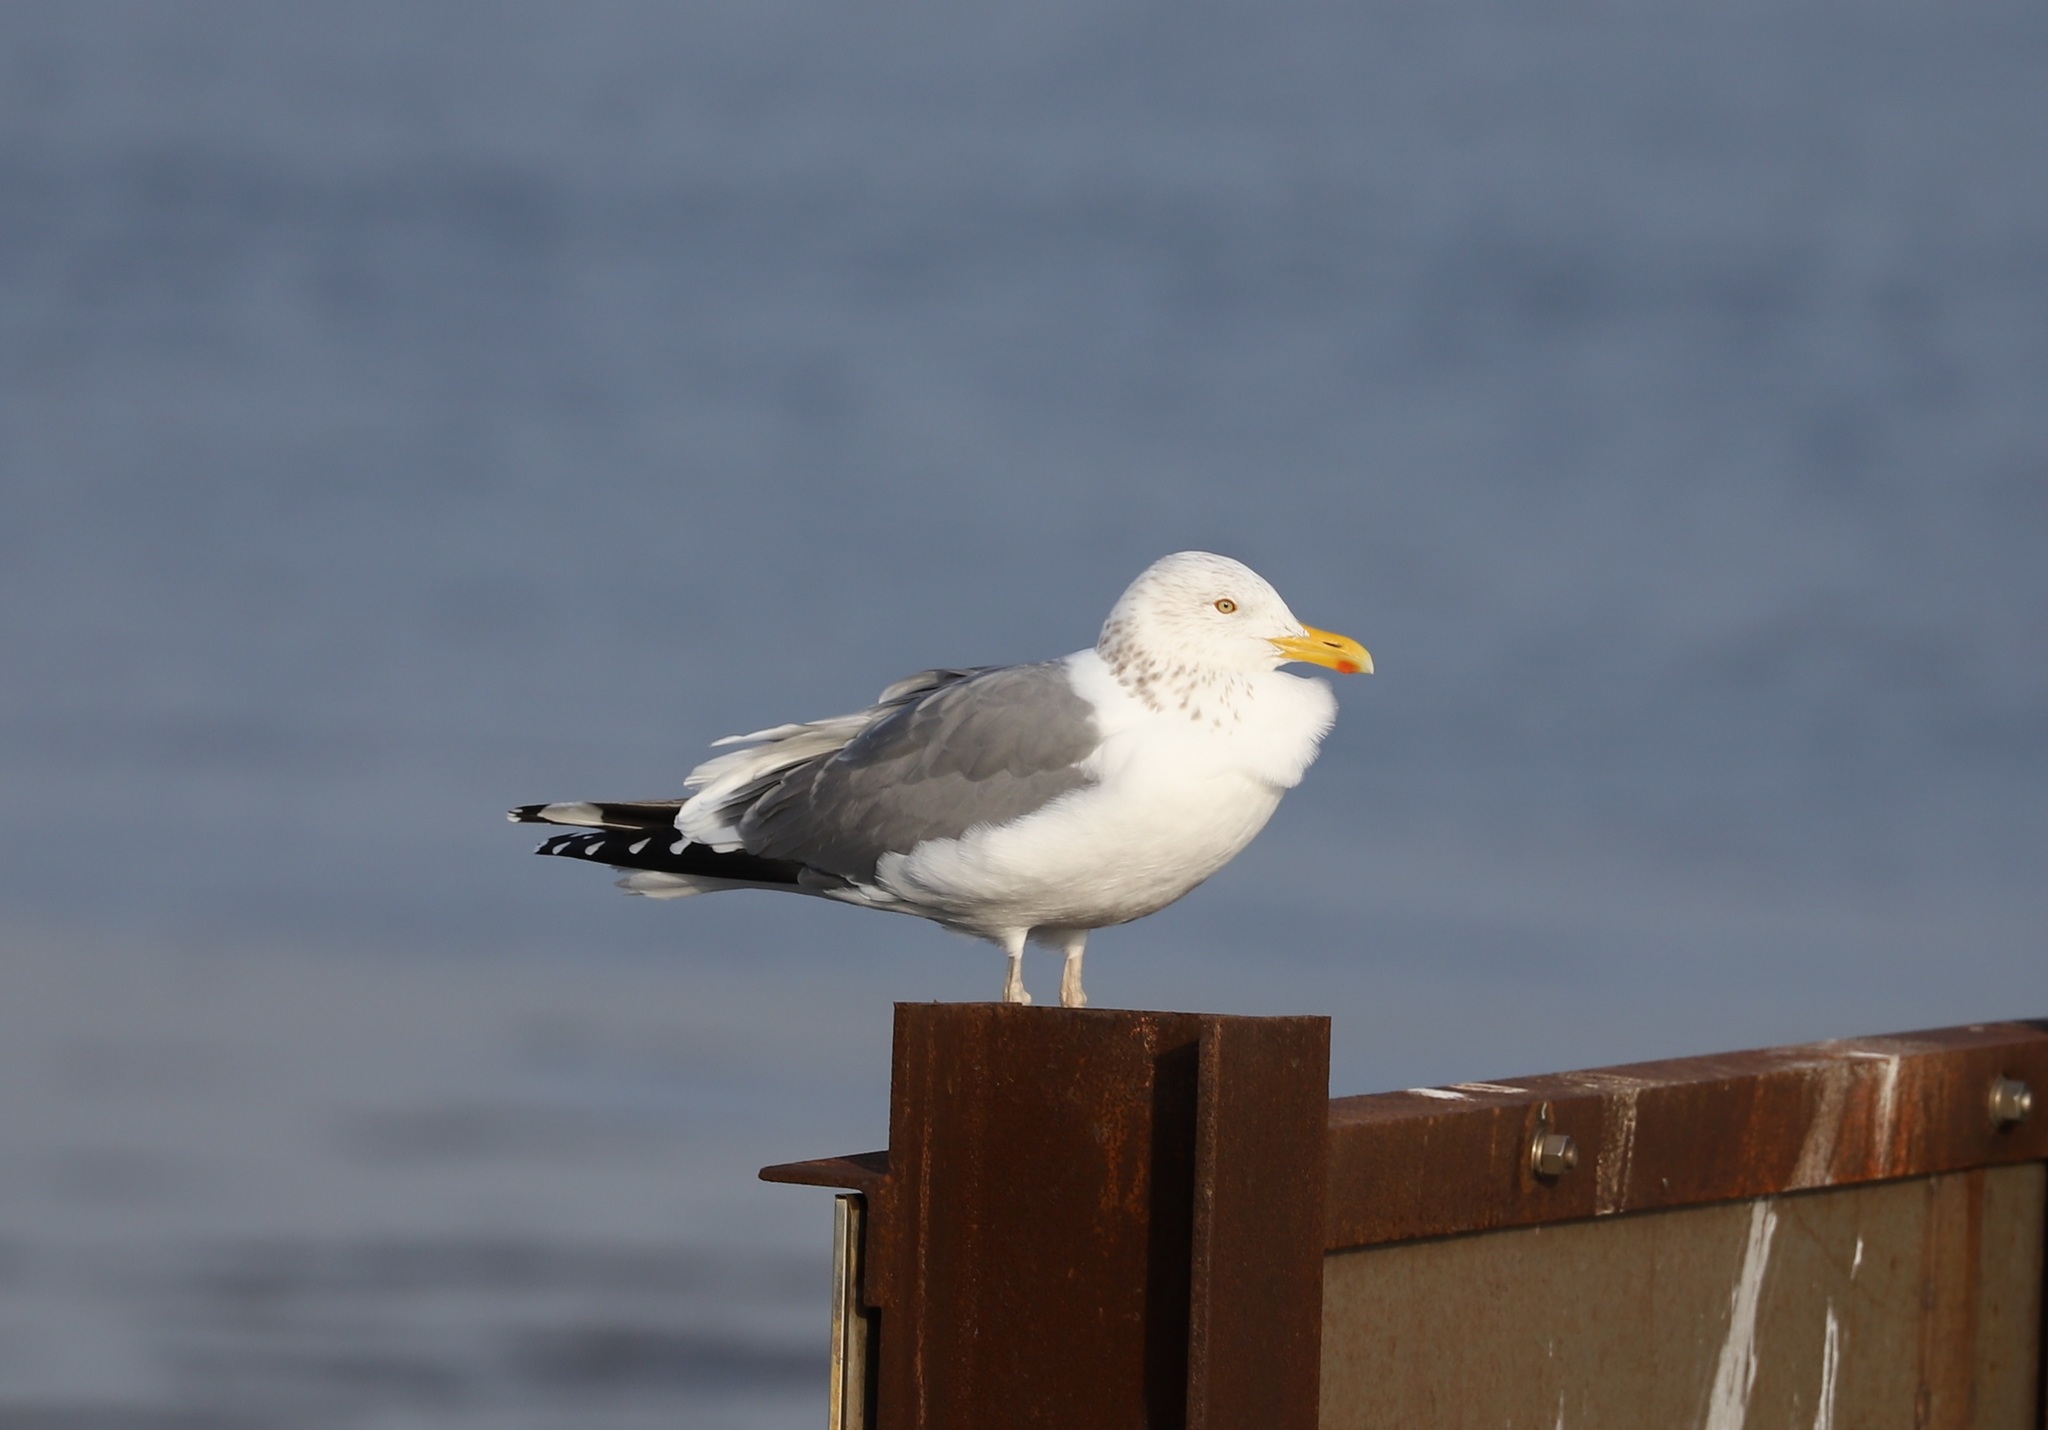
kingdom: Animalia
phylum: Chordata
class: Aves
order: Charadriiformes
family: Laridae
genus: Larus
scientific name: Larus argentatus
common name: Herring gull
